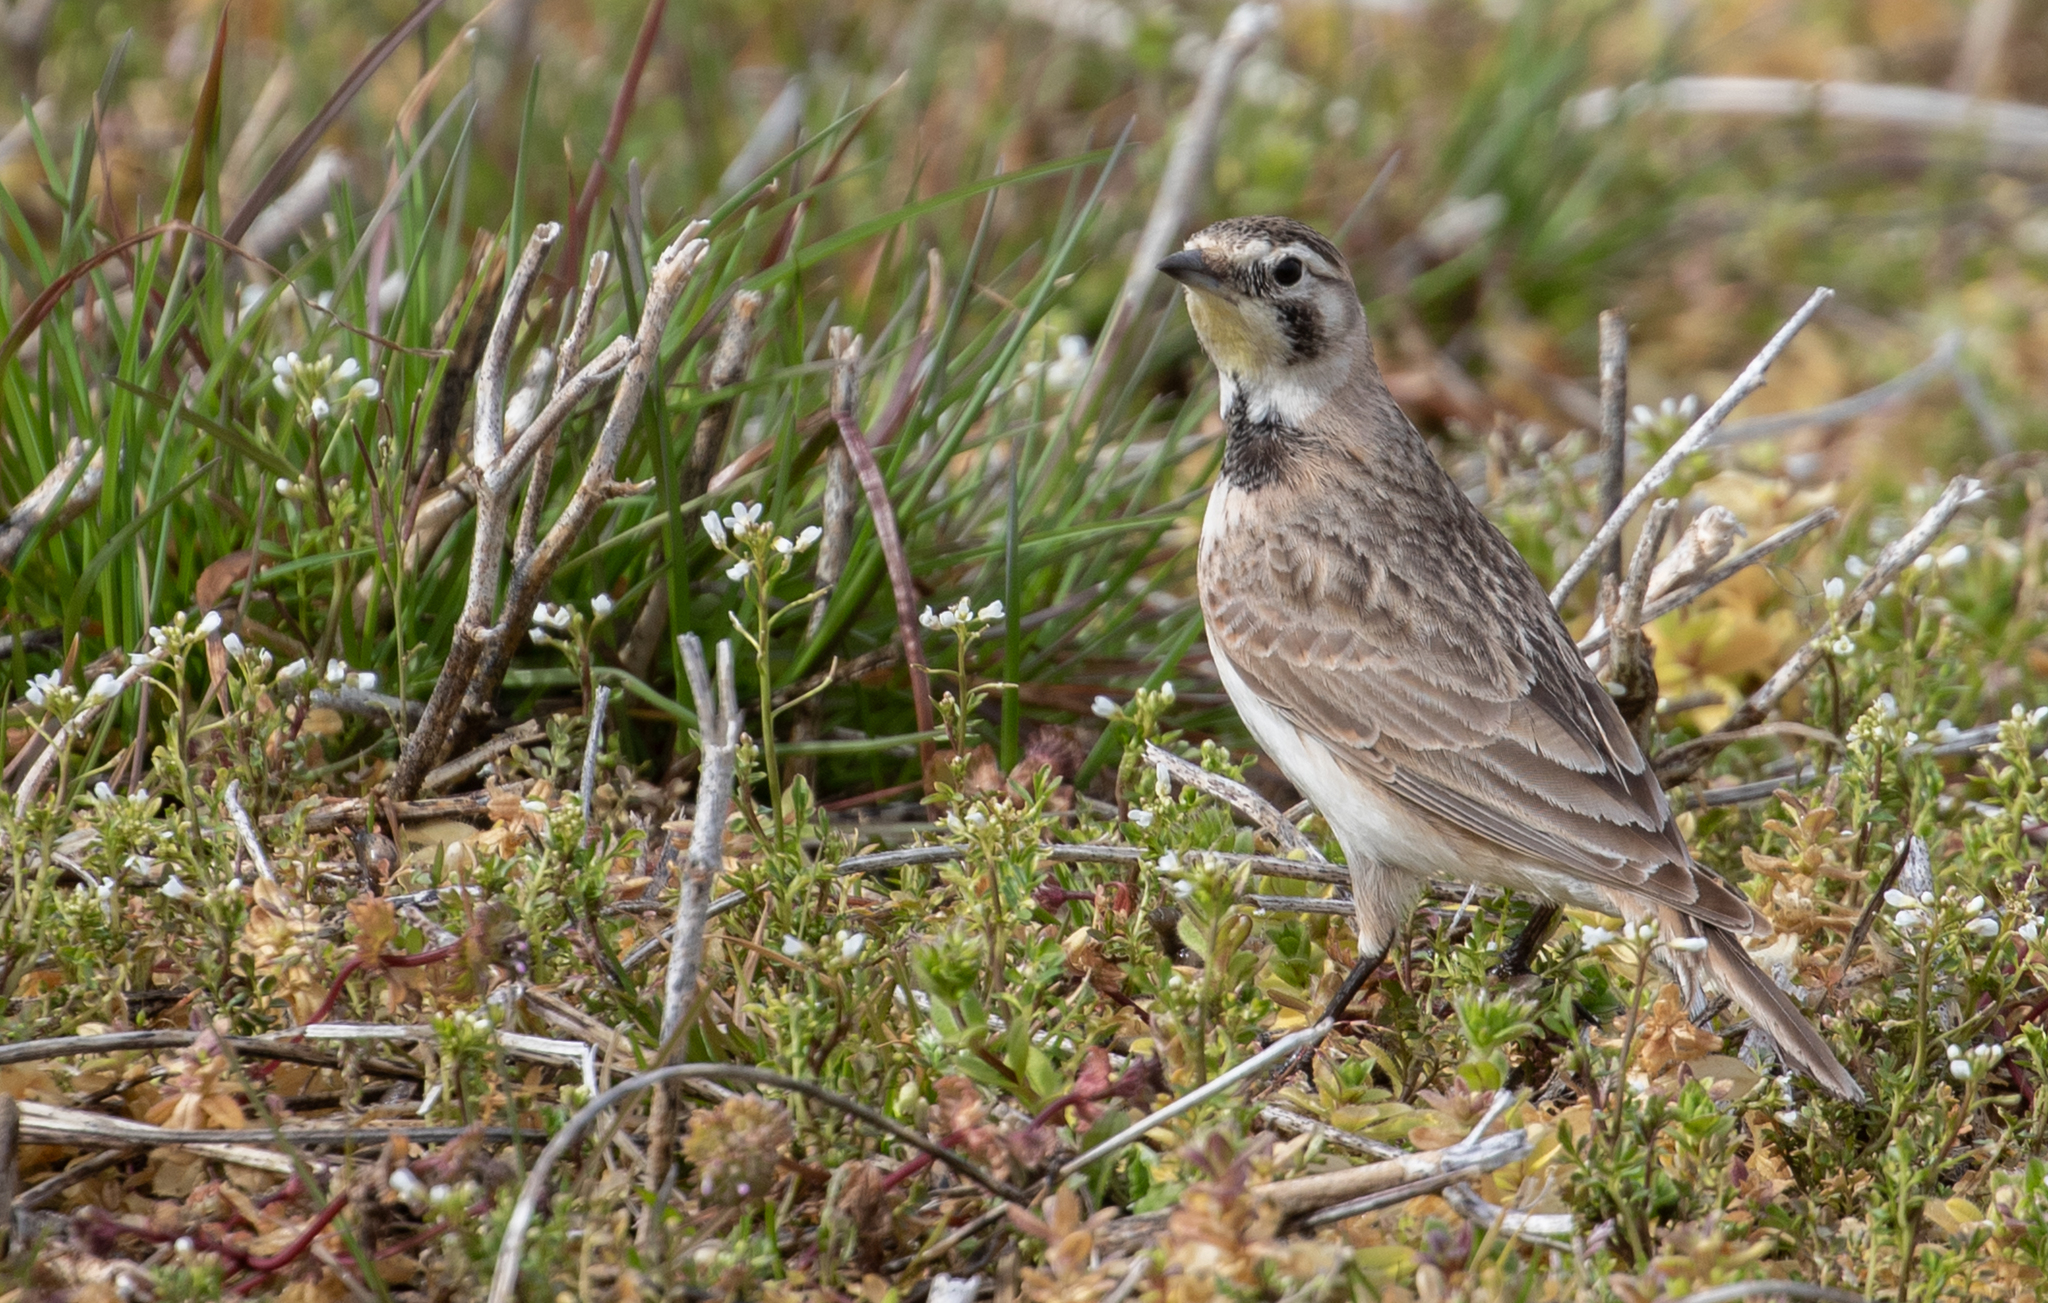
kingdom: Animalia
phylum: Chordata
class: Aves
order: Passeriformes
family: Alaudidae
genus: Eremophila
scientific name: Eremophila alpestris
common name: Horned lark
